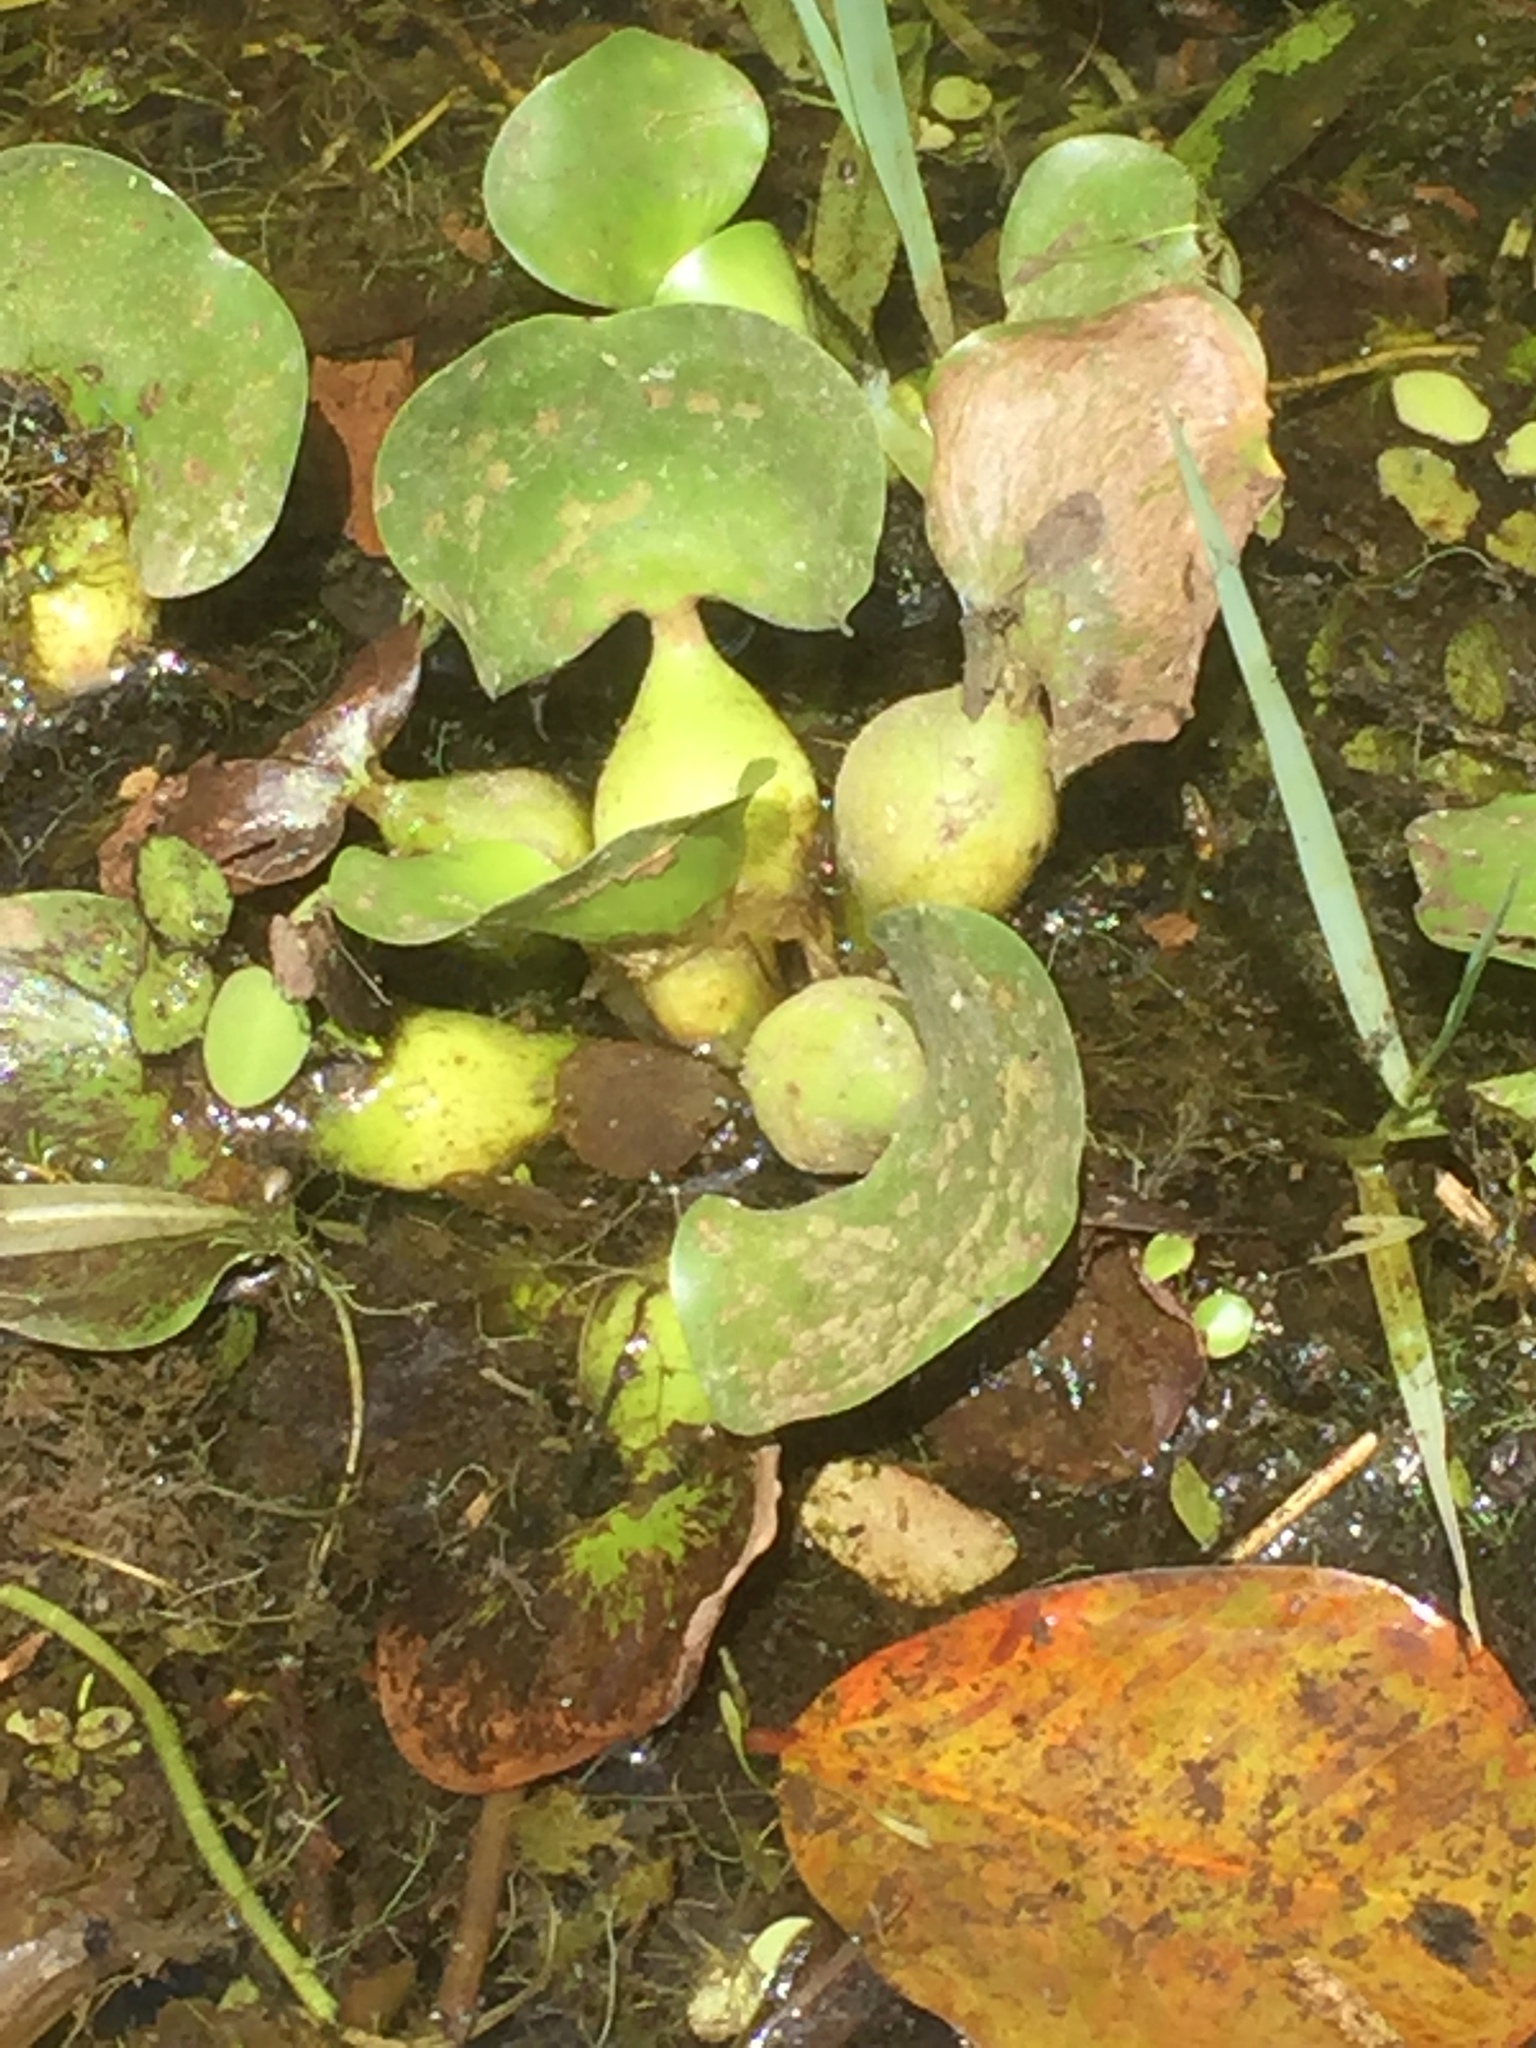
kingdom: Plantae
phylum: Tracheophyta
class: Liliopsida
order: Commelinales
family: Pontederiaceae
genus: Pontederia
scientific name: Pontederia crassipes
